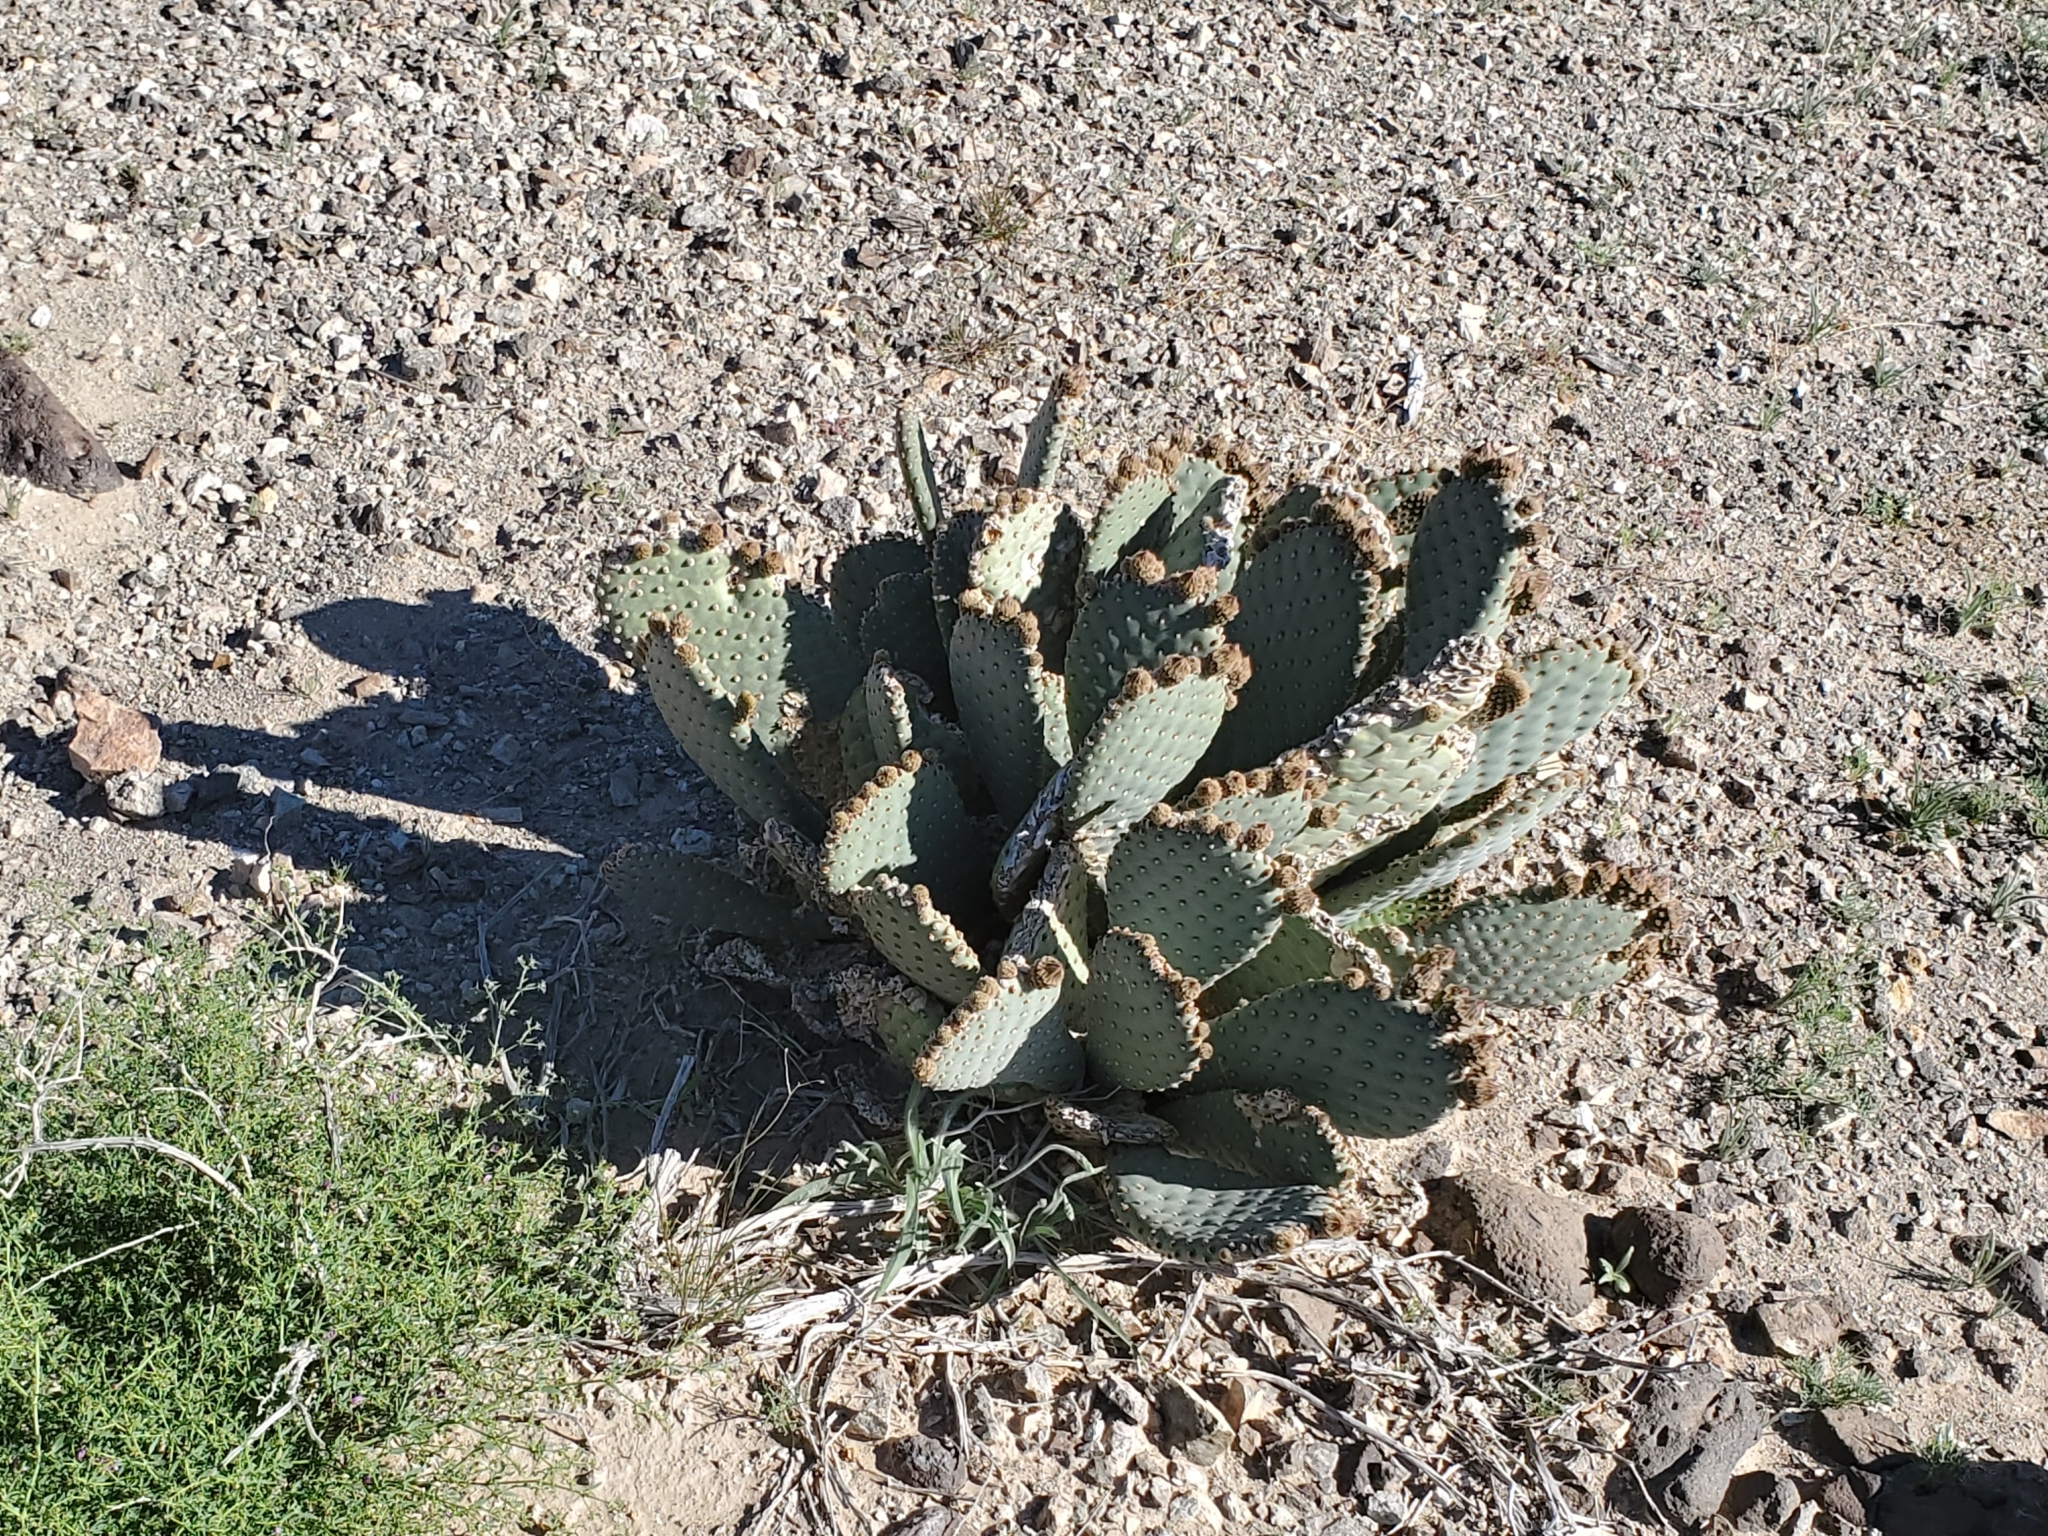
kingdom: Plantae
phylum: Tracheophyta
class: Magnoliopsida
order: Caryophyllales
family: Cactaceae
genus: Opuntia
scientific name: Opuntia basilaris
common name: Beavertail prickly-pear
